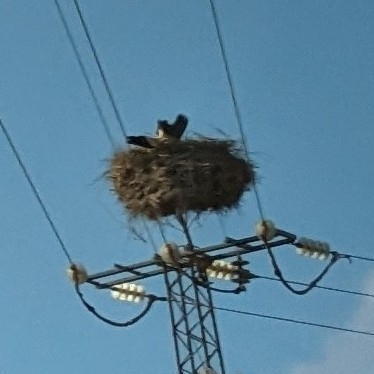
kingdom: Animalia
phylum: Chordata
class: Aves
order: Ciconiiformes
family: Ciconiidae
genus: Ciconia
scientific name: Ciconia ciconia
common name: White stork
